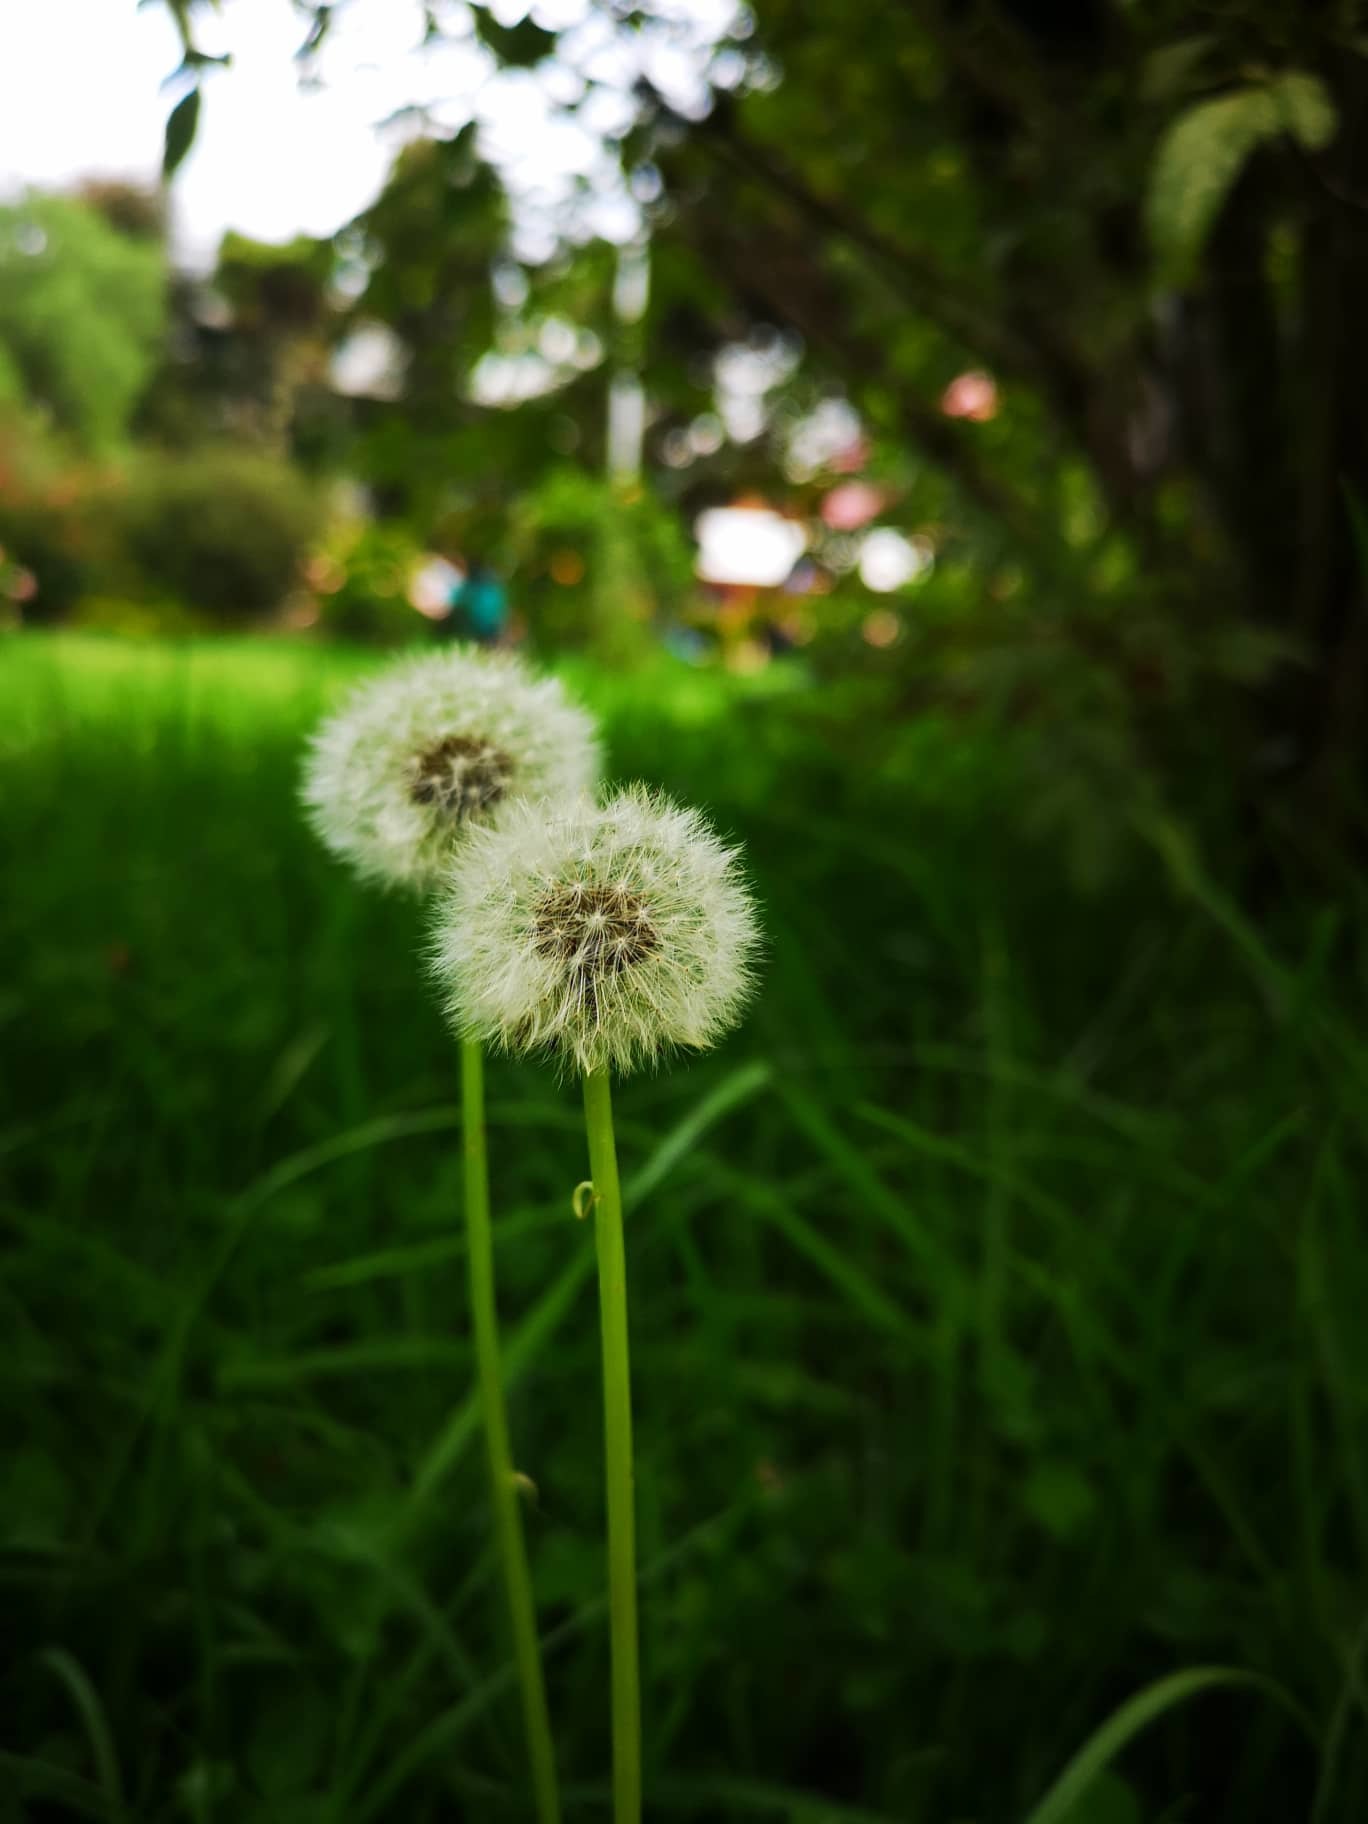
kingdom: Plantae
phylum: Tracheophyta
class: Magnoliopsida
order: Asterales
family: Asteraceae
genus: Taraxacum
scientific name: Taraxacum officinale
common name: Common dandelion
